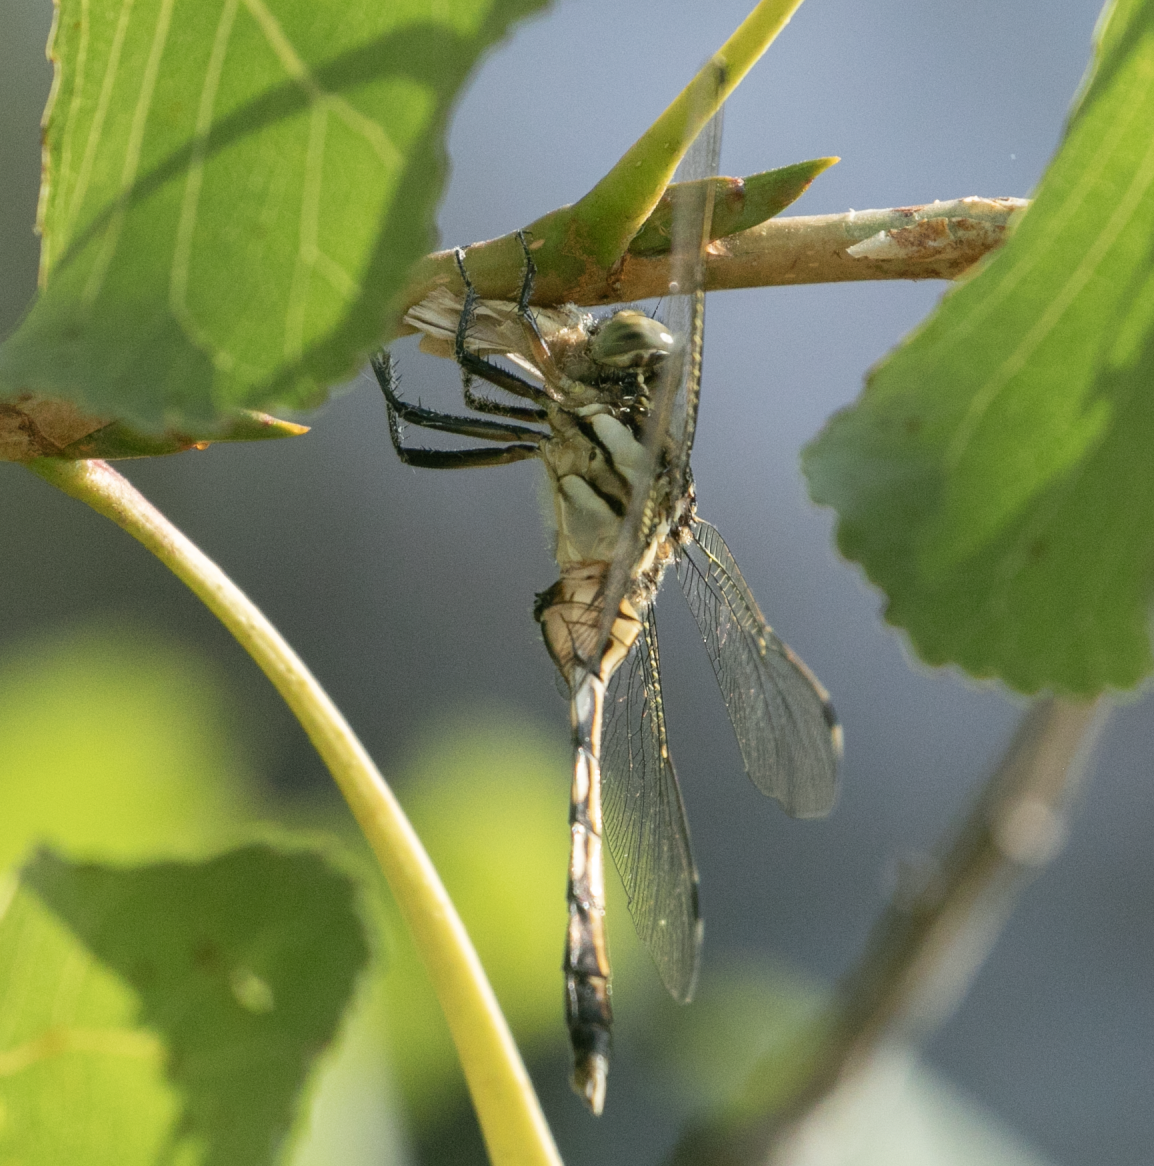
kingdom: Animalia
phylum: Arthropoda
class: Insecta
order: Odonata
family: Libellulidae
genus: Orthetrum
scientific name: Orthetrum albistylum
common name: White-tailed skimmer
